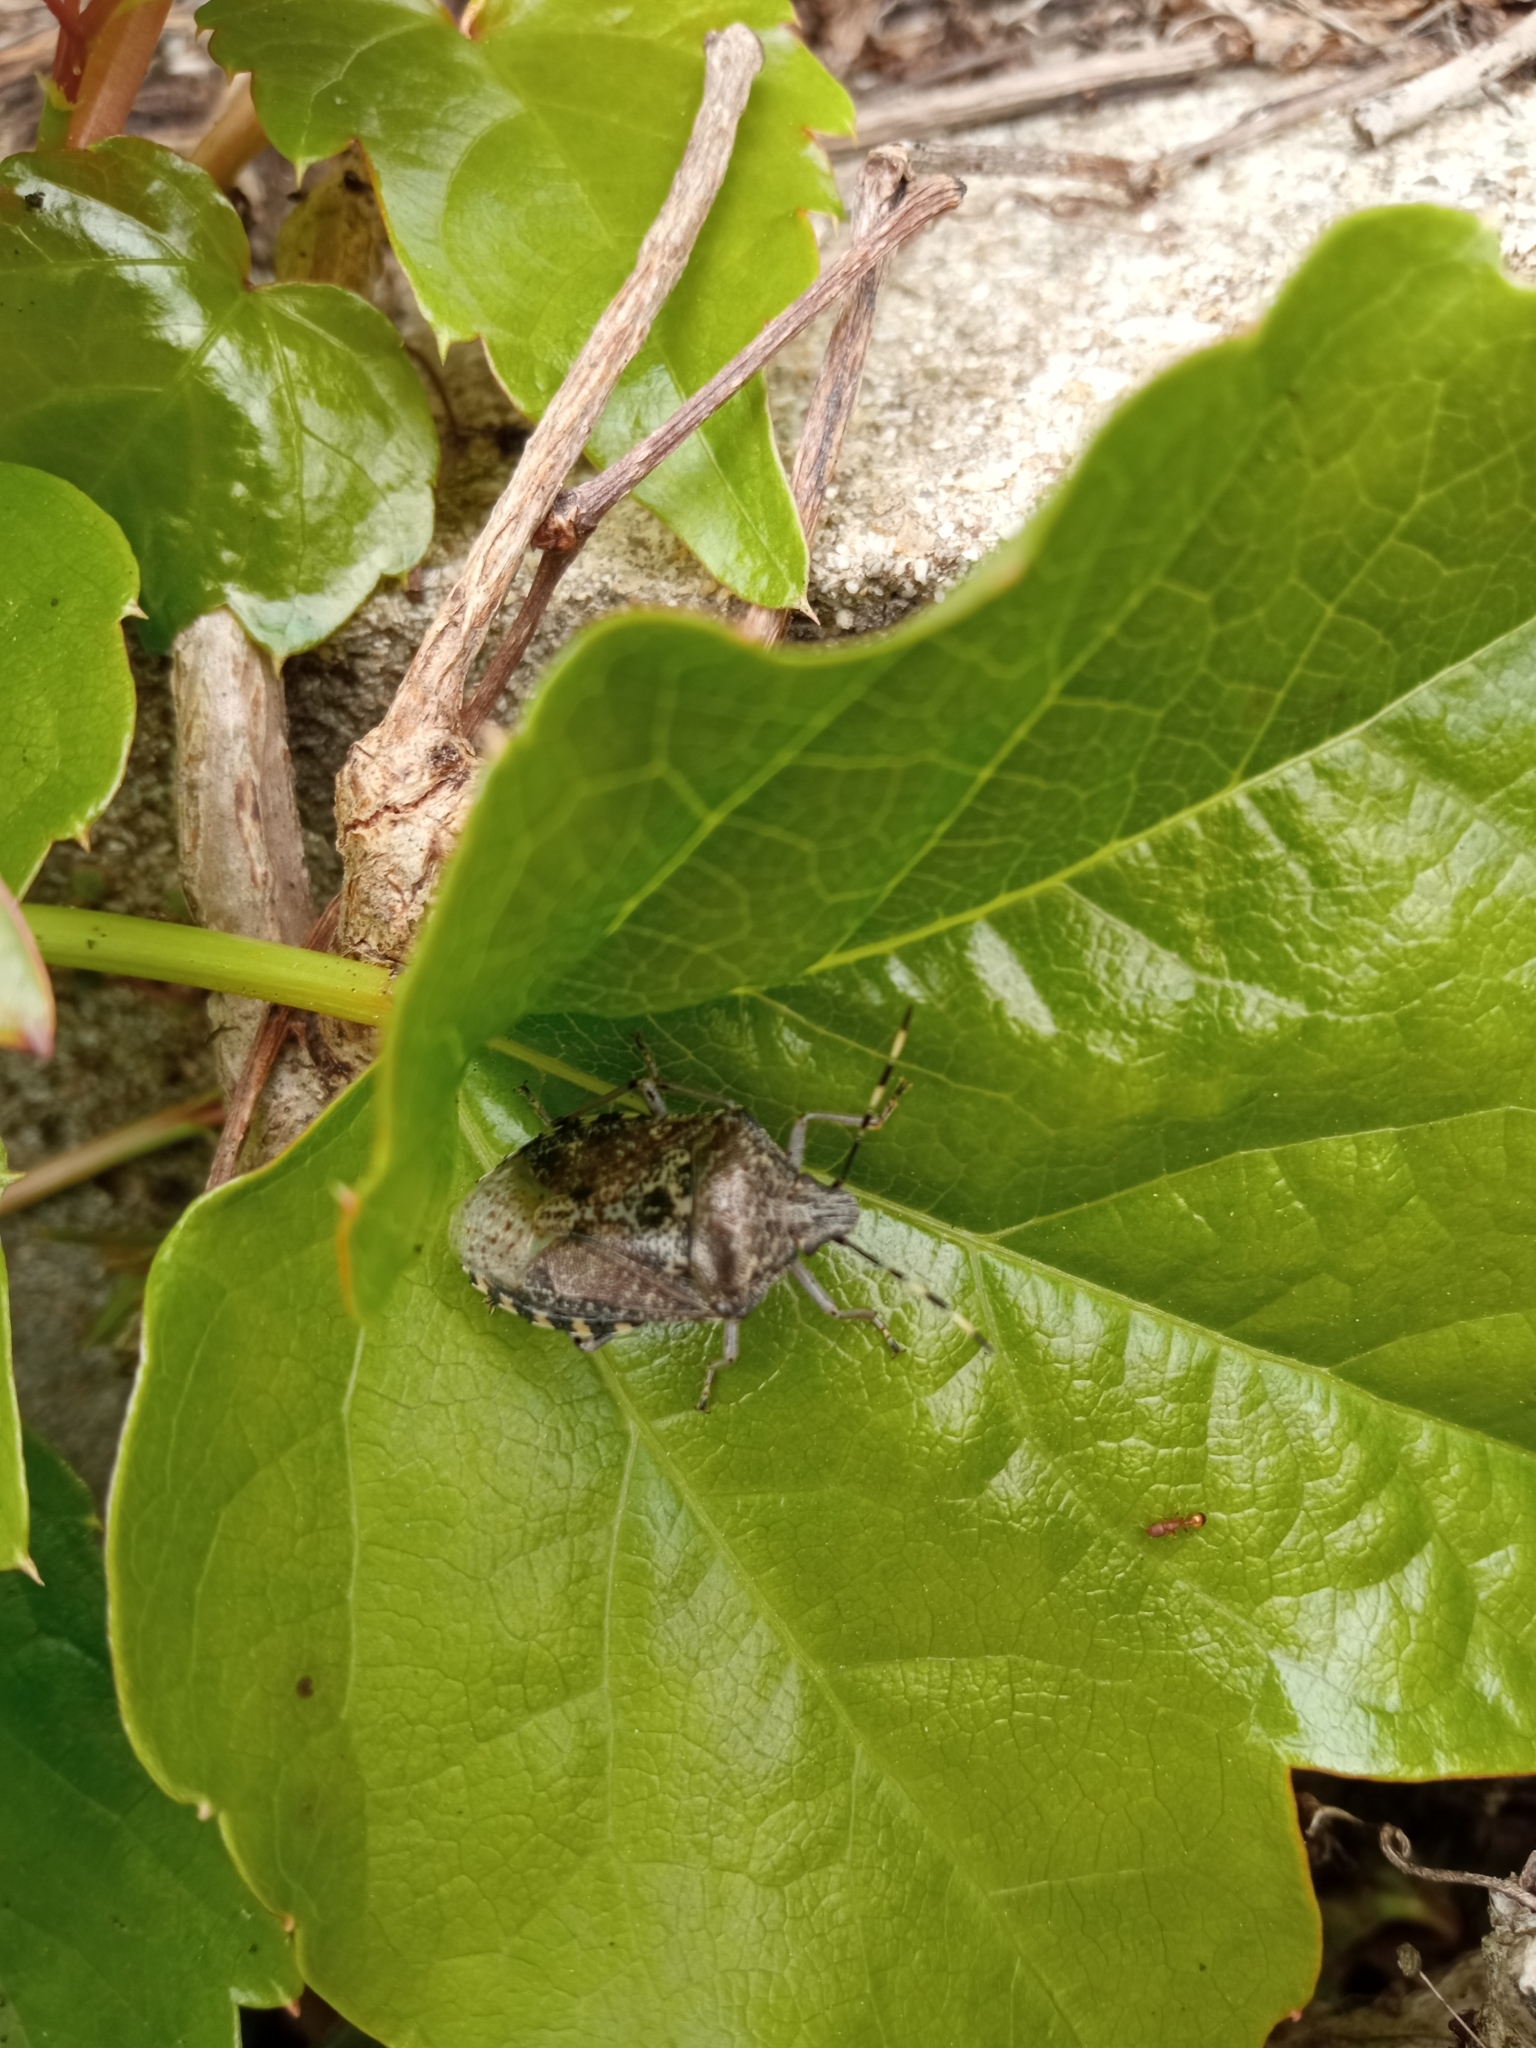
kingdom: Animalia
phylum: Arthropoda
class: Insecta
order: Hemiptera
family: Pentatomidae
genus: Rhaphigaster
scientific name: Rhaphigaster nebulosa
